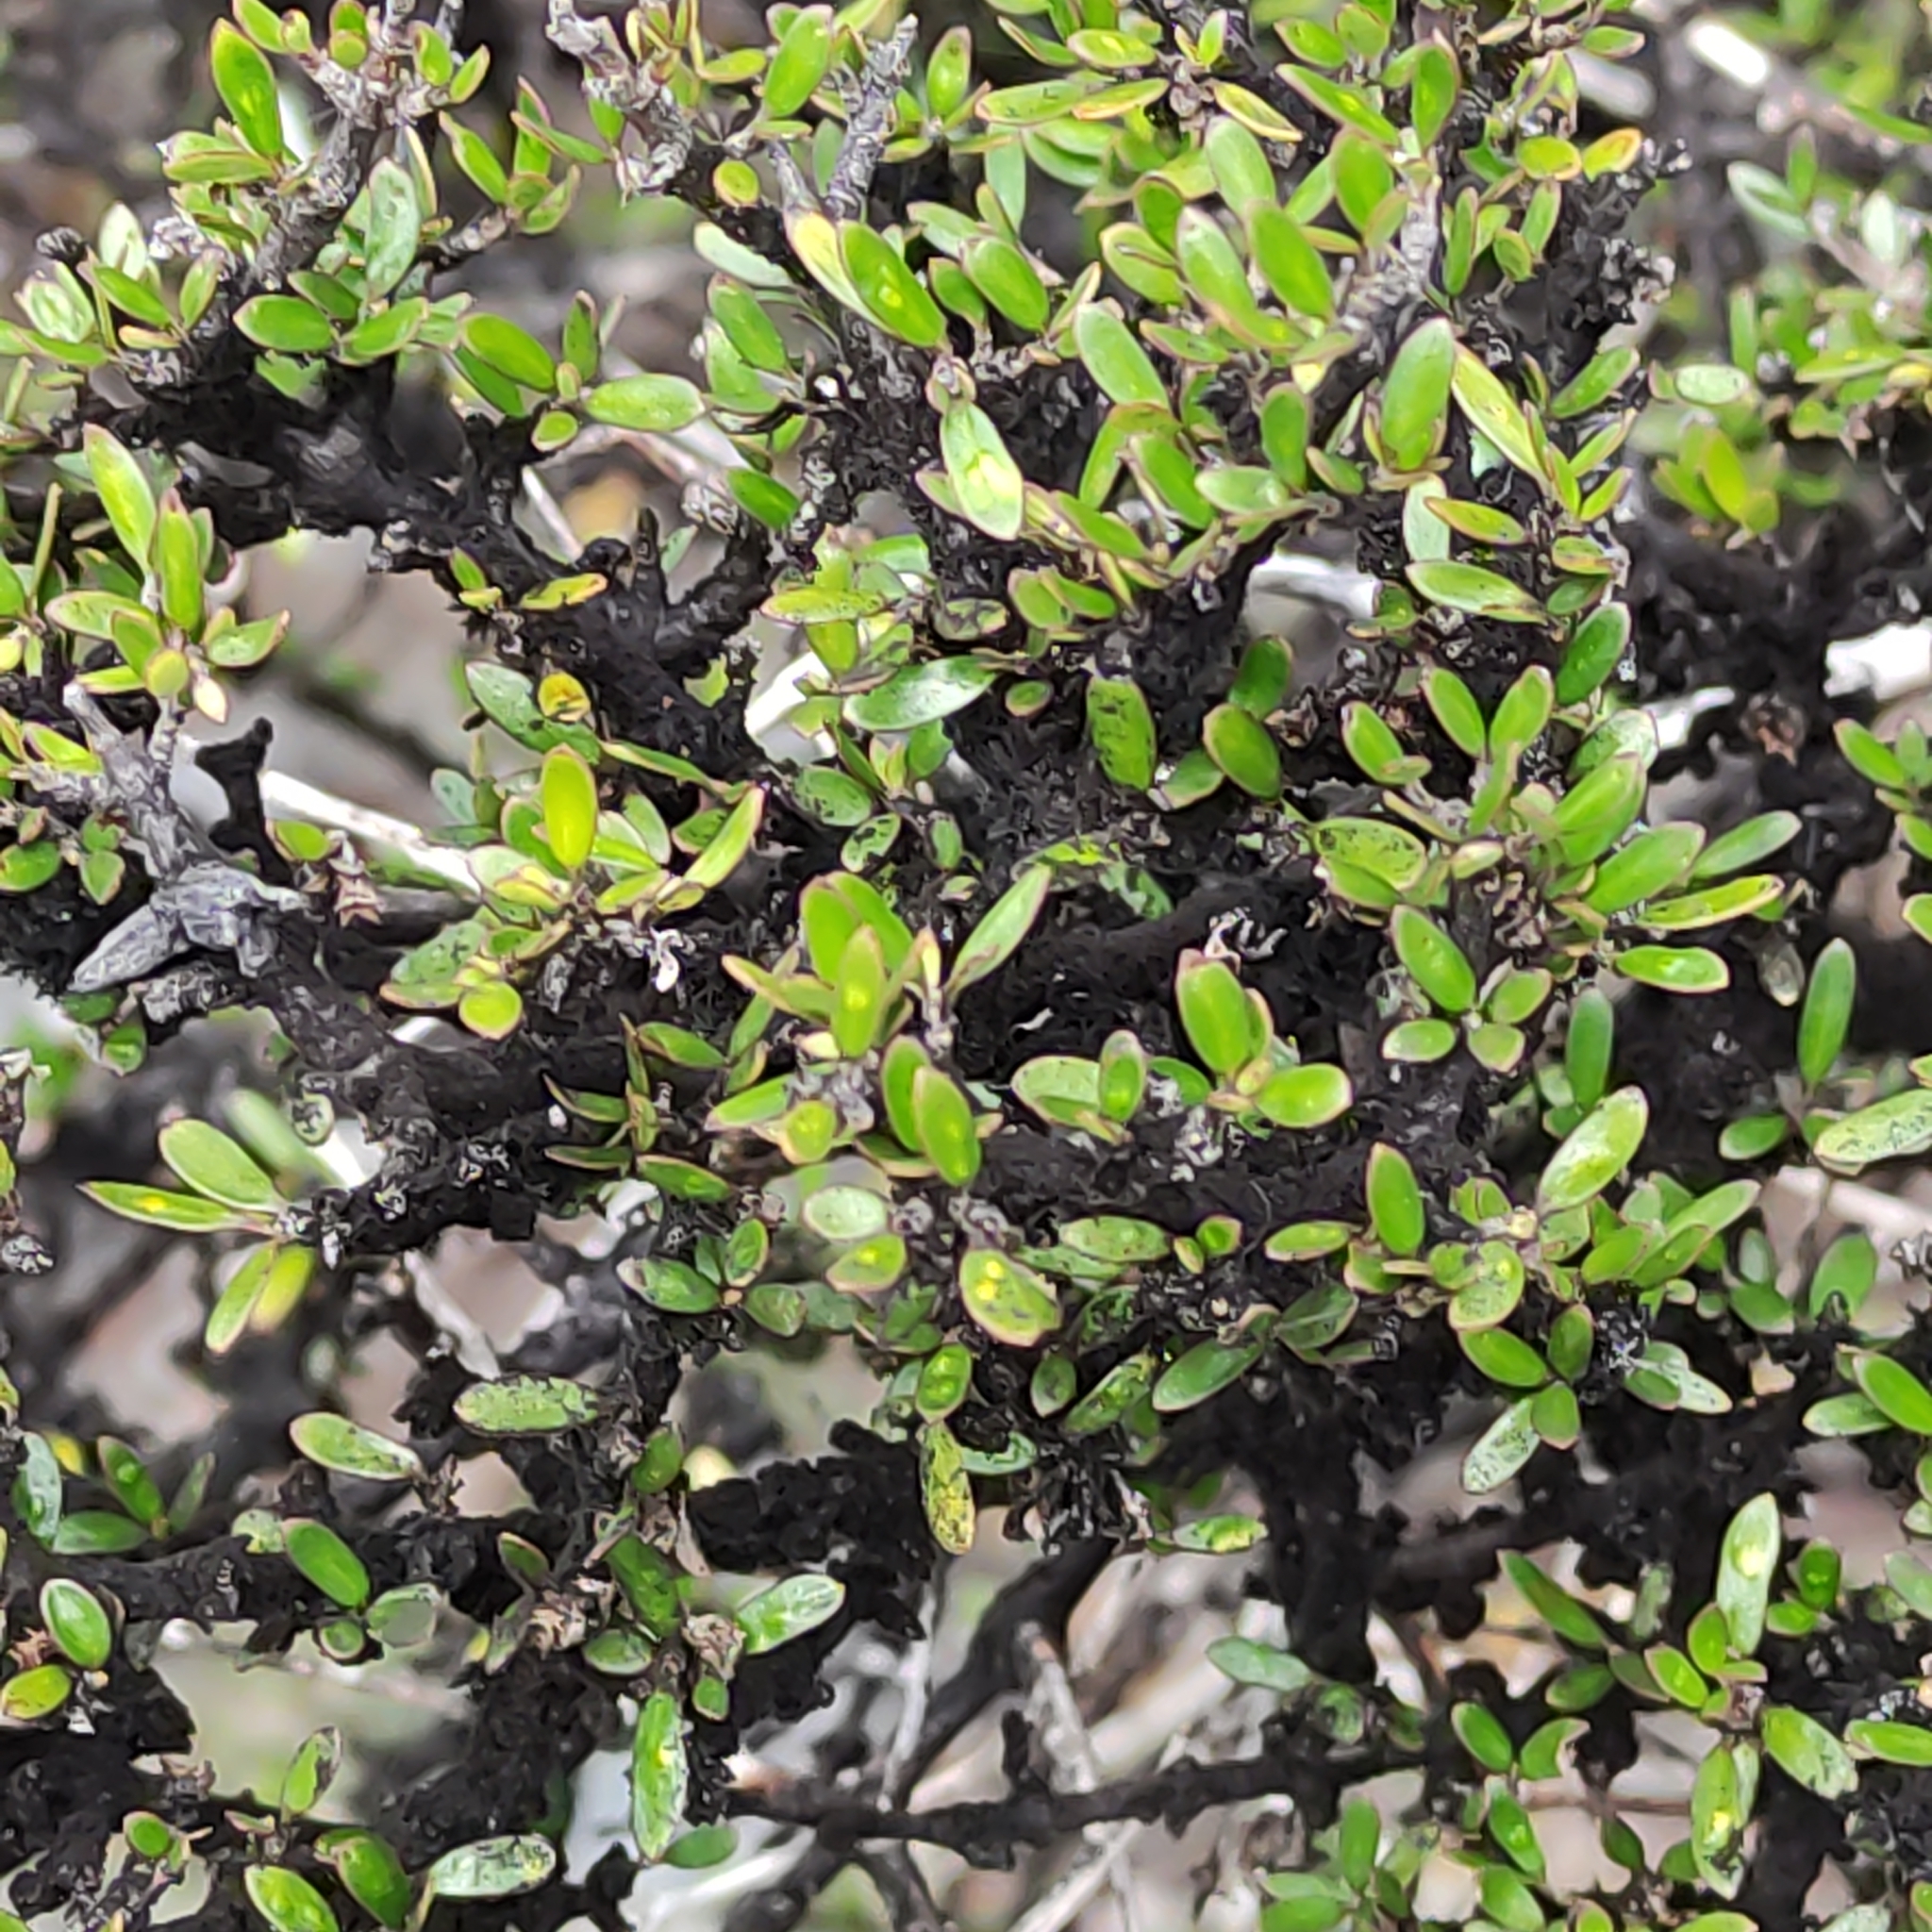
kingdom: Plantae
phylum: Tracheophyta
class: Magnoliopsida
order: Gentianales
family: Rubiaceae
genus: Coprosma
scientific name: Coprosma propinqua
